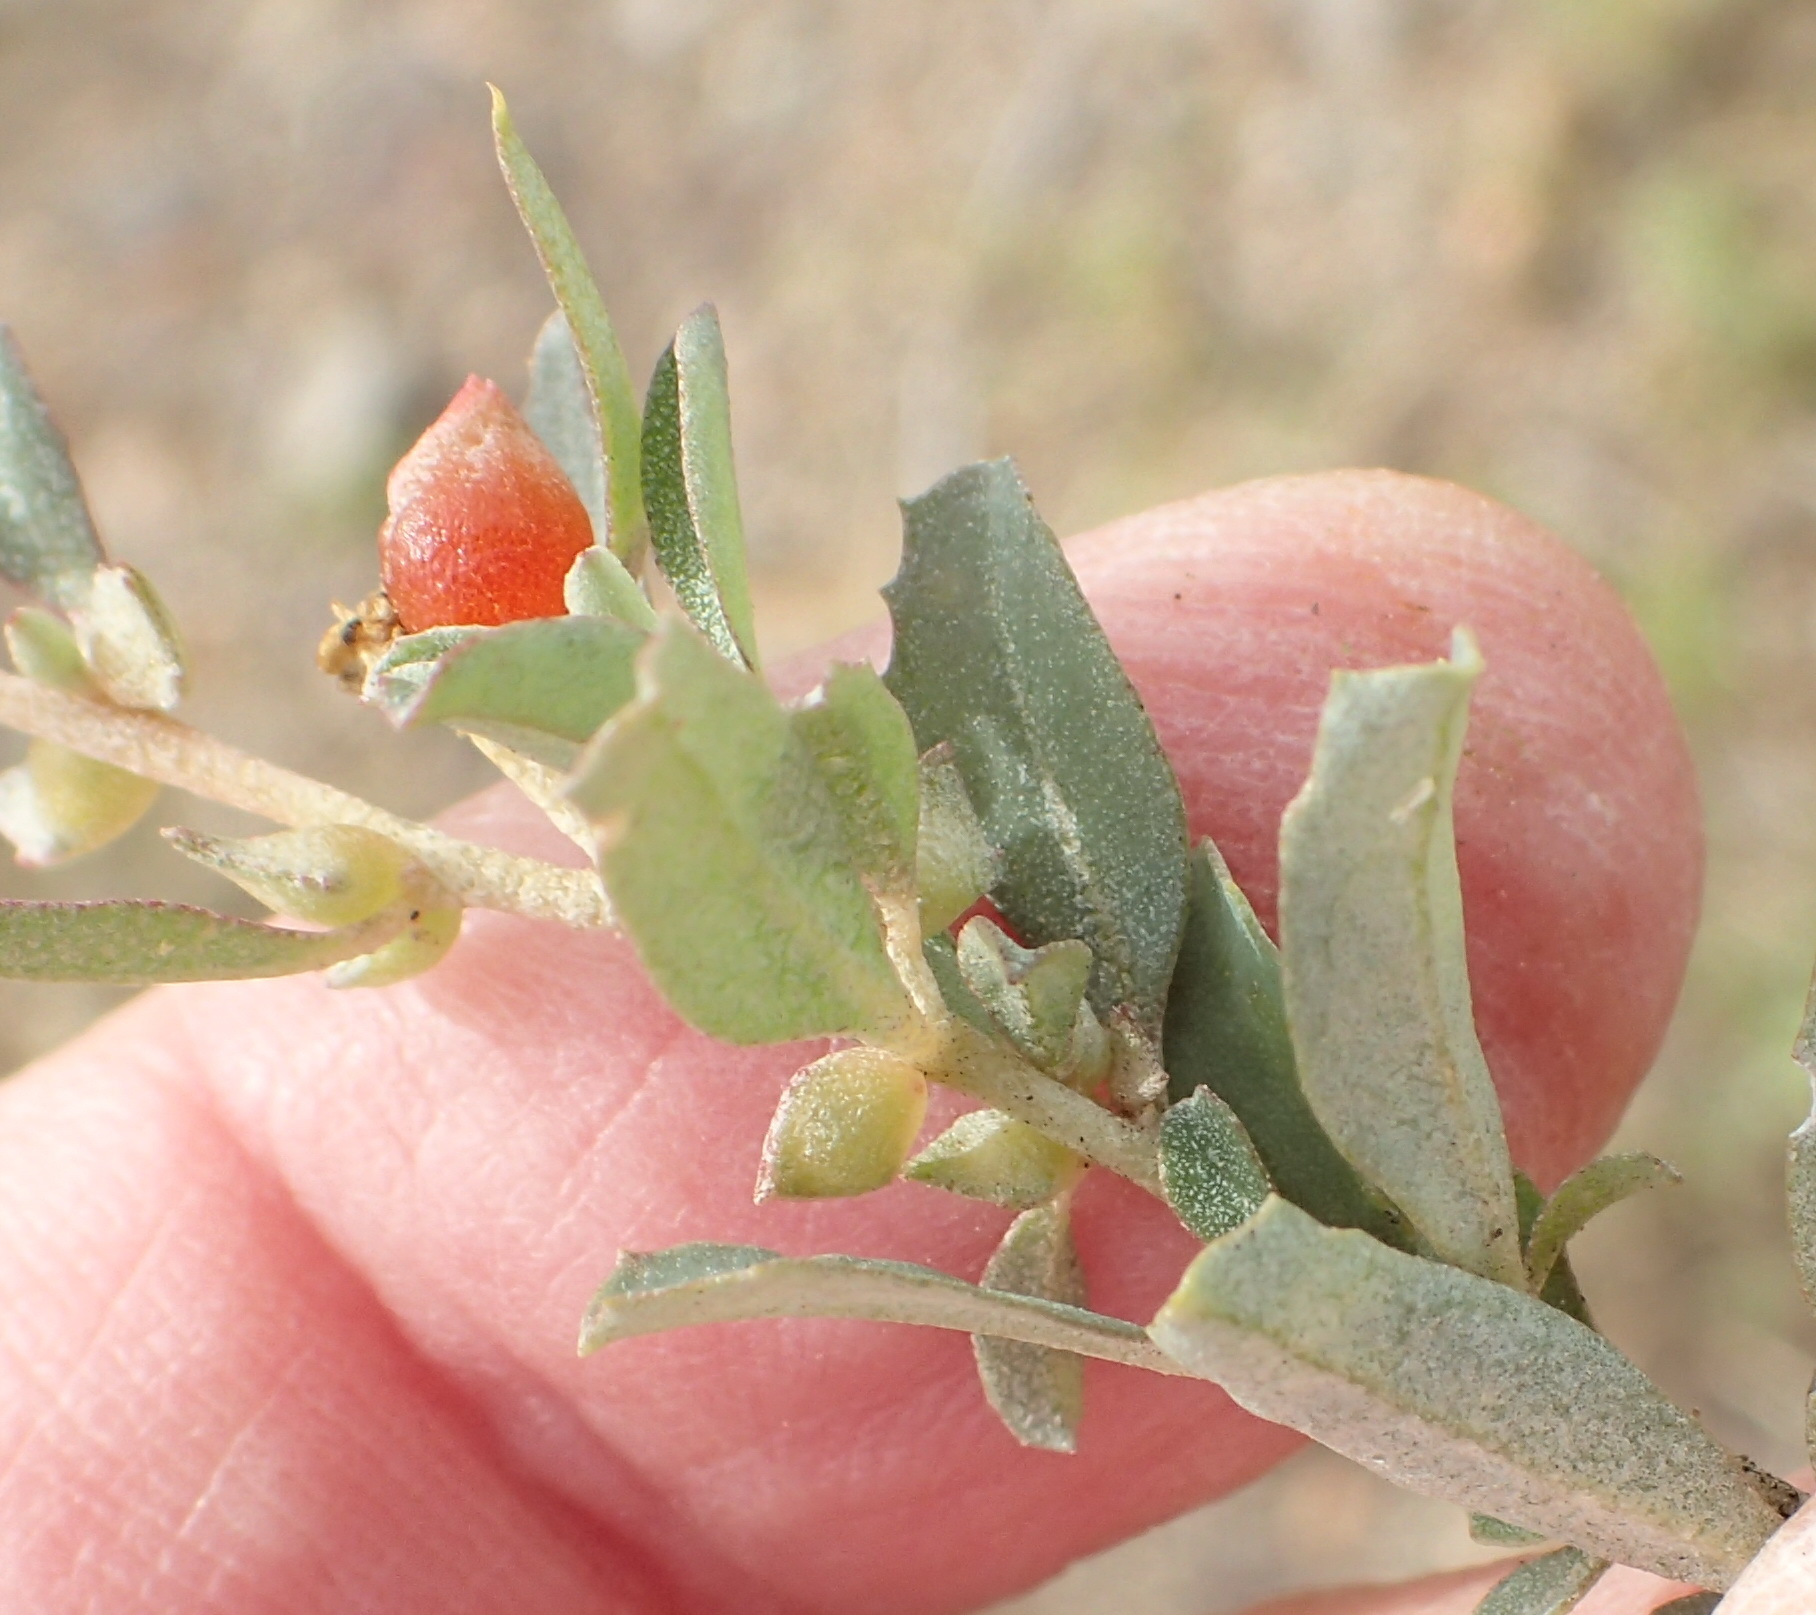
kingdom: Plantae
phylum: Tracheophyta
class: Magnoliopsida
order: Caryophyllales
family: Amaranthaceae
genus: Atriplex
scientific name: Atriplex semibaccata
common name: Australian saltbush
